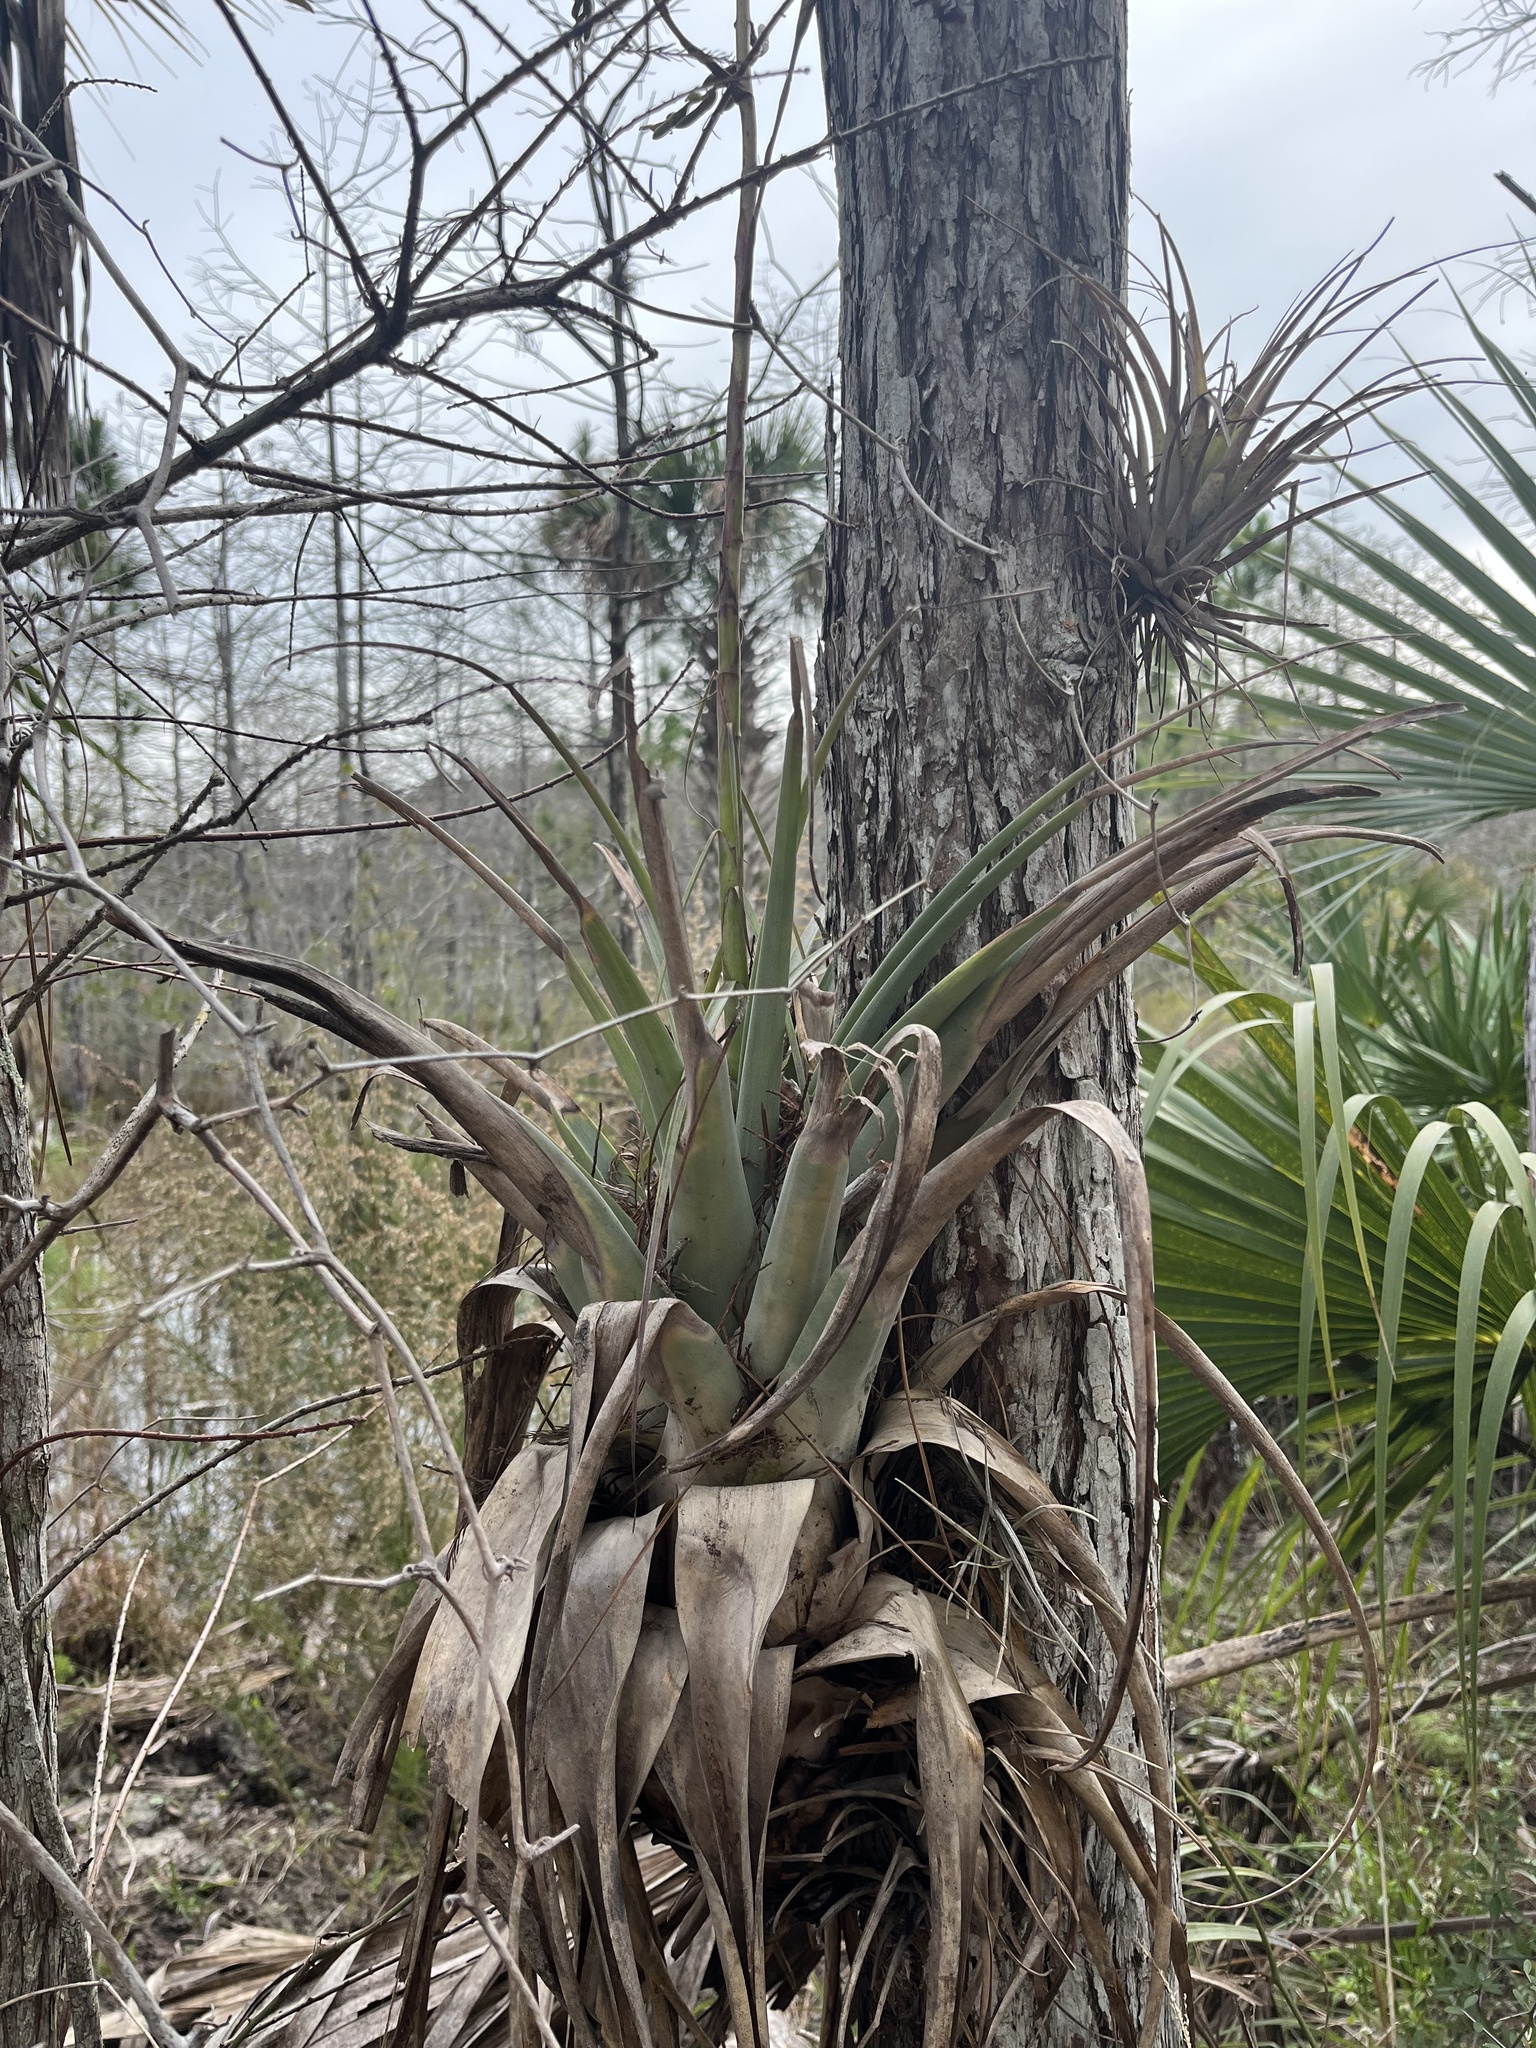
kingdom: Plantae
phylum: Tracheophyta
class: Liliopsida
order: Poales
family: Bromeliaceae
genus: Tillandsia
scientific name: Tillandsia utriculata
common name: Wild pine
